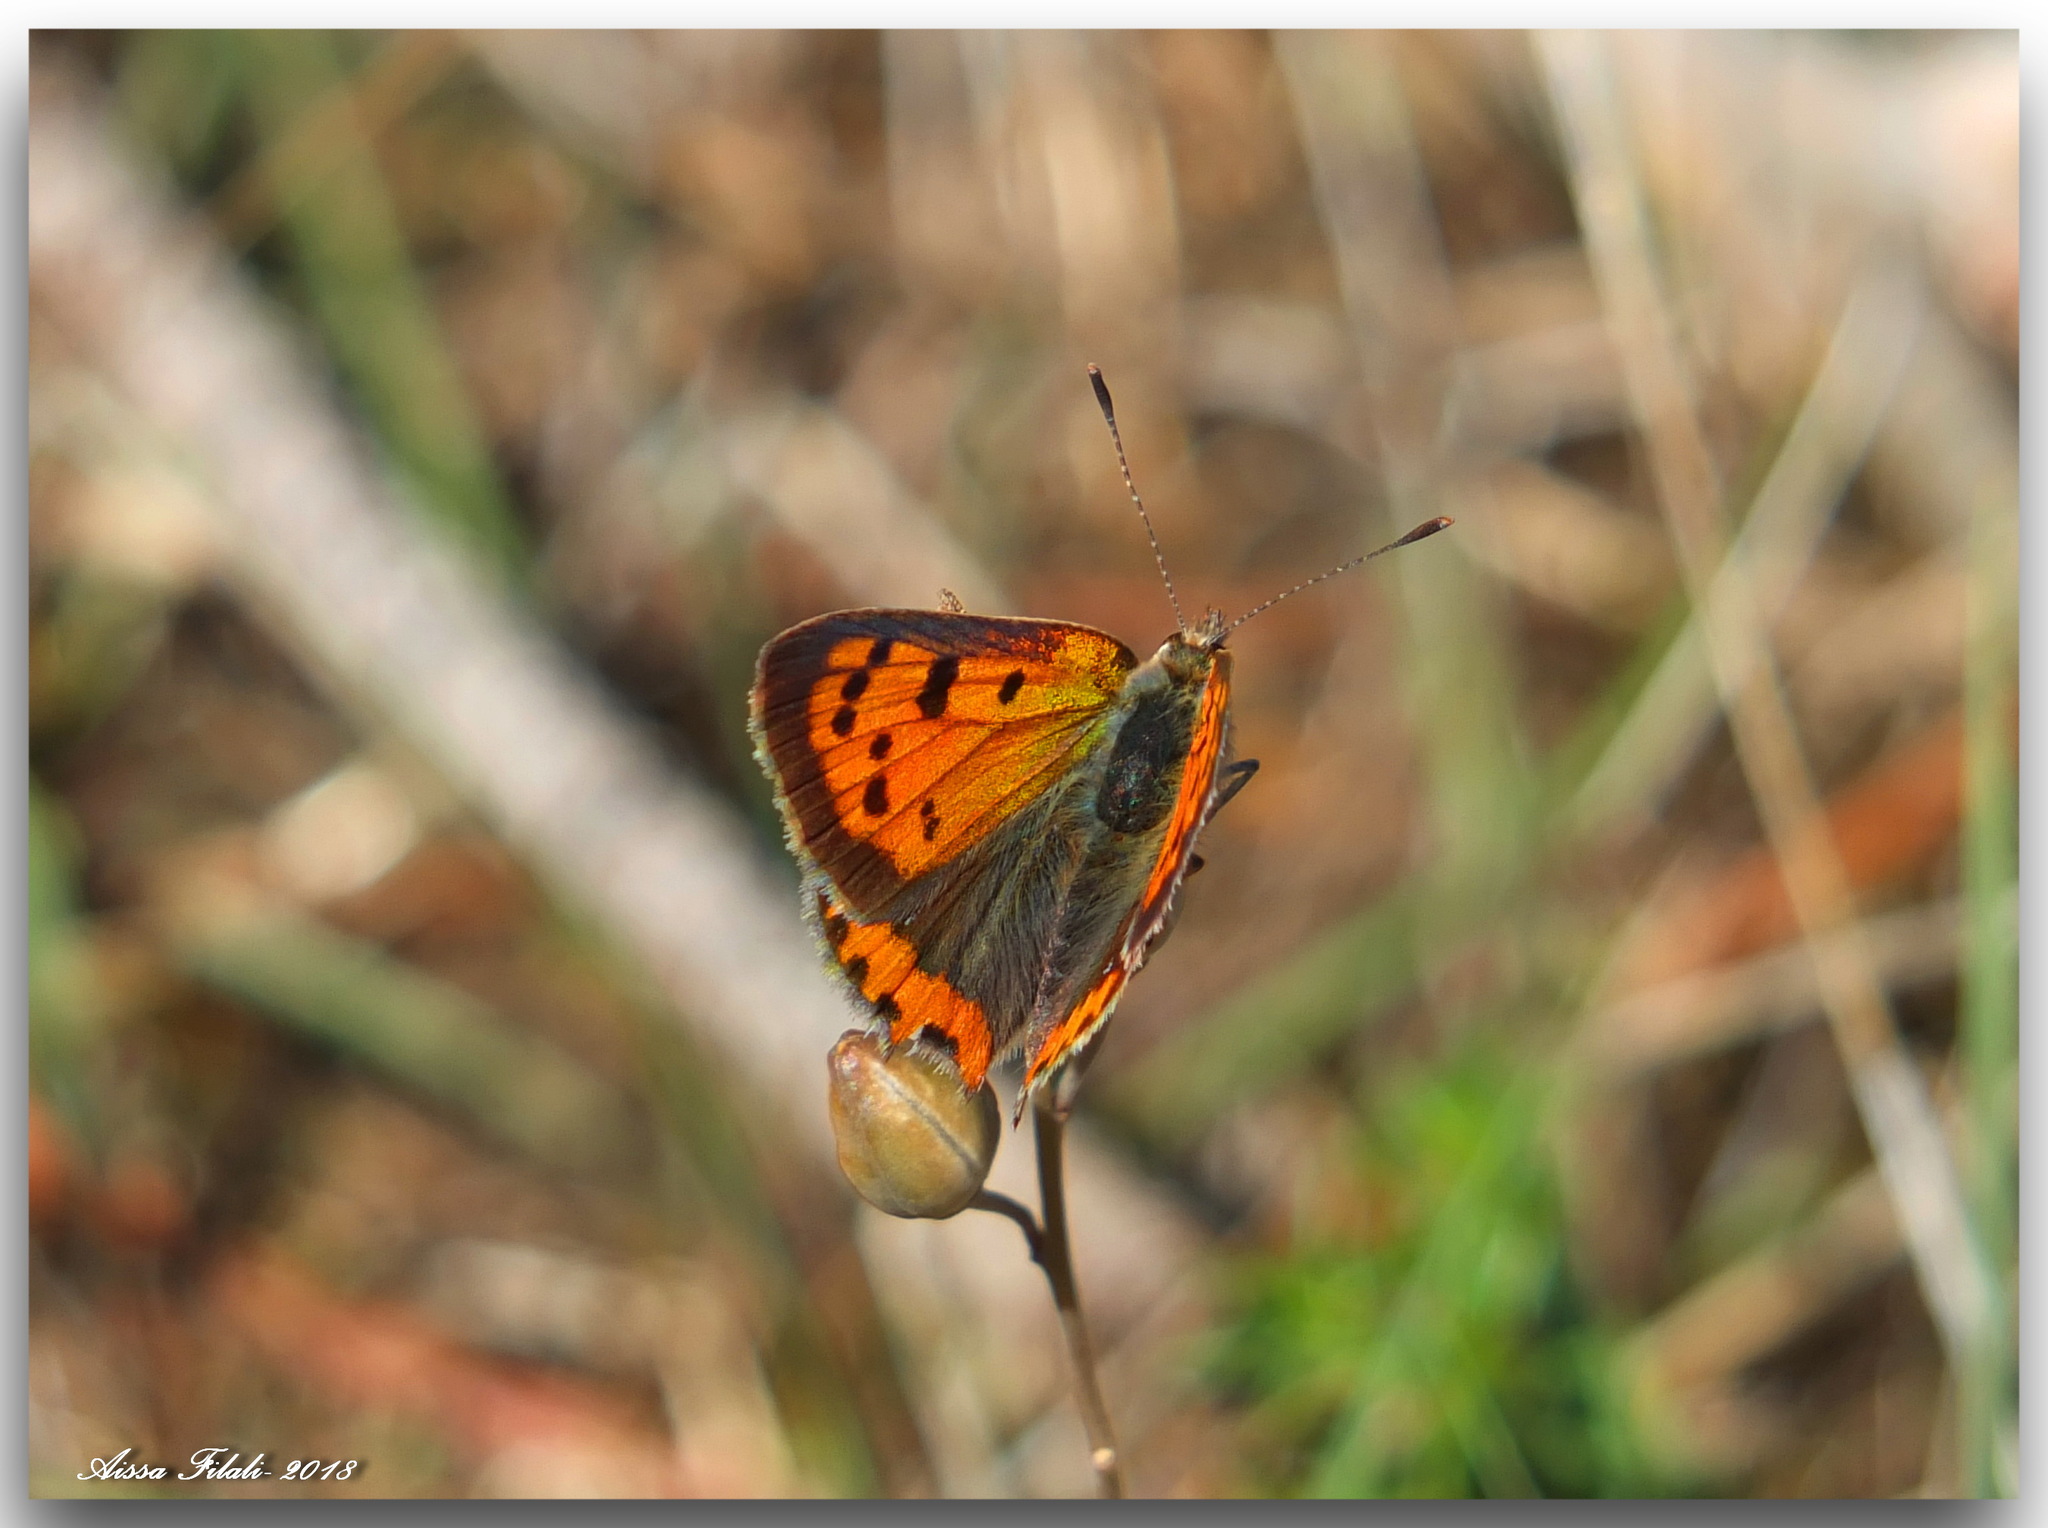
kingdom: Animalia
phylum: Arthropoda
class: Insecta
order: Lepidoptera
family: Lycaenidae
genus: Lycaena
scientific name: Lycaena phlaeas
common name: Small copper
